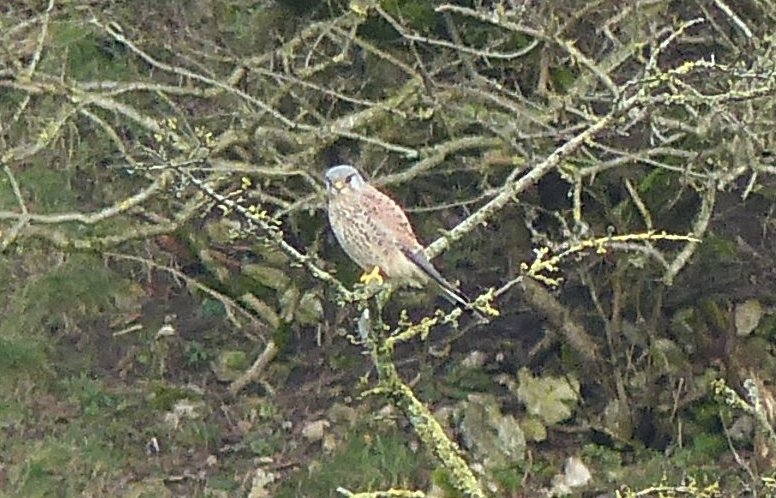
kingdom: Animalia
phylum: Chordata
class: Aves
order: Falconiformes
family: Falconidae
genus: Falco
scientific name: Falco tinnunculus
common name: Common kestrel
